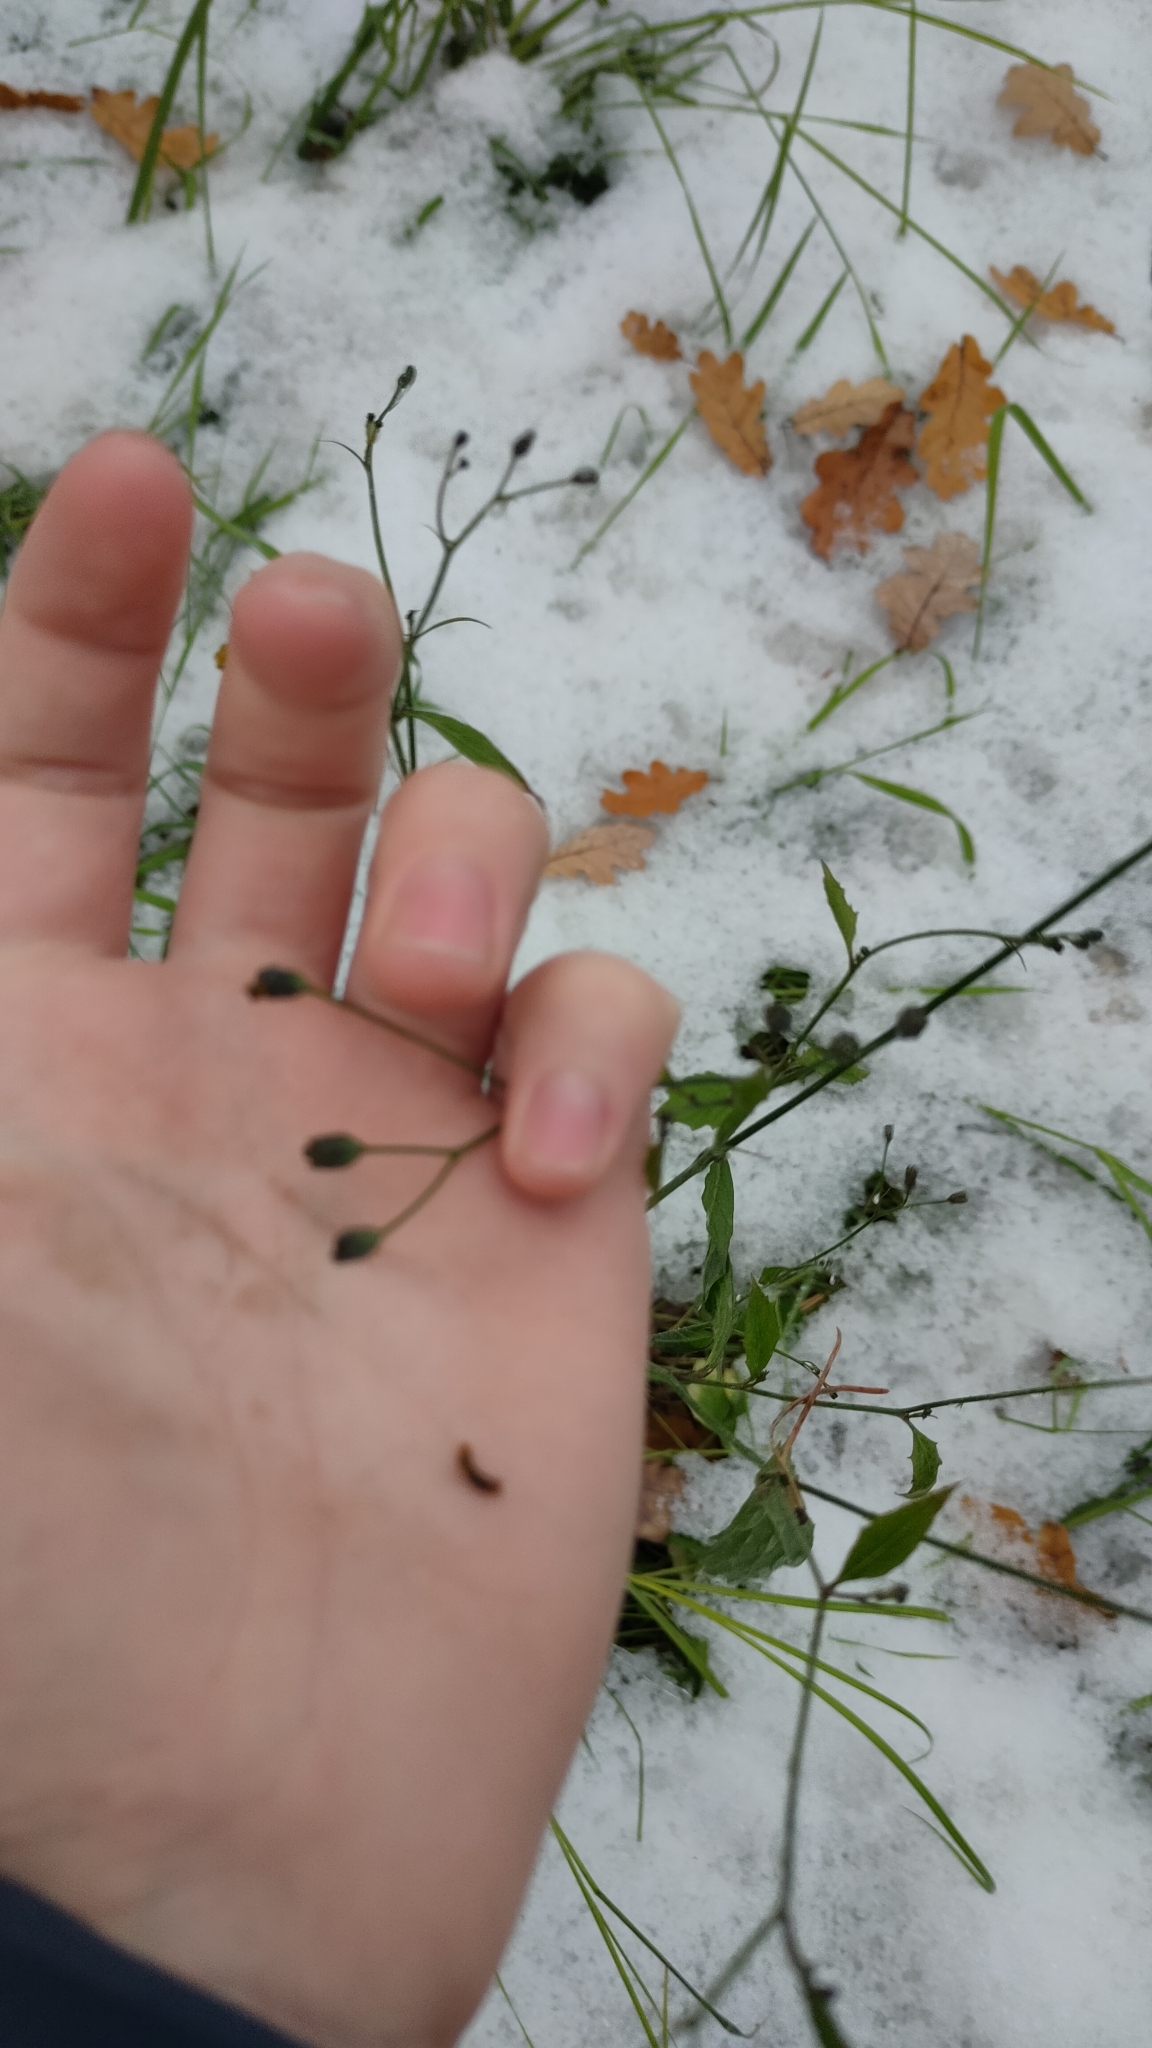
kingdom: Plantae
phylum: Tracheophyta
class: Magnoliopsida
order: Asterales
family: Asteraceae
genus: Lapsana
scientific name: Lapsana communis
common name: Nipplewort
